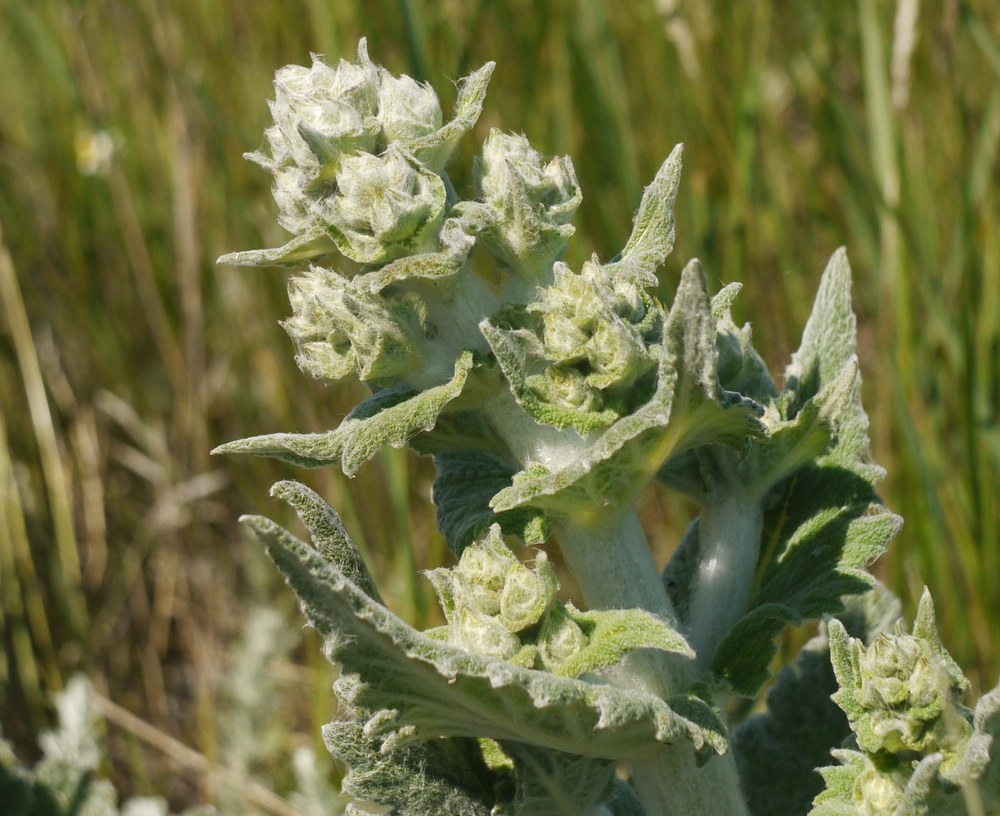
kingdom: Plantae
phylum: Tracheophyta
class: Magnoliopsida
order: Lamiales
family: Lamiaceae
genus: Salvia
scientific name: Salvia aethiopis
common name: Mediterranean sage
